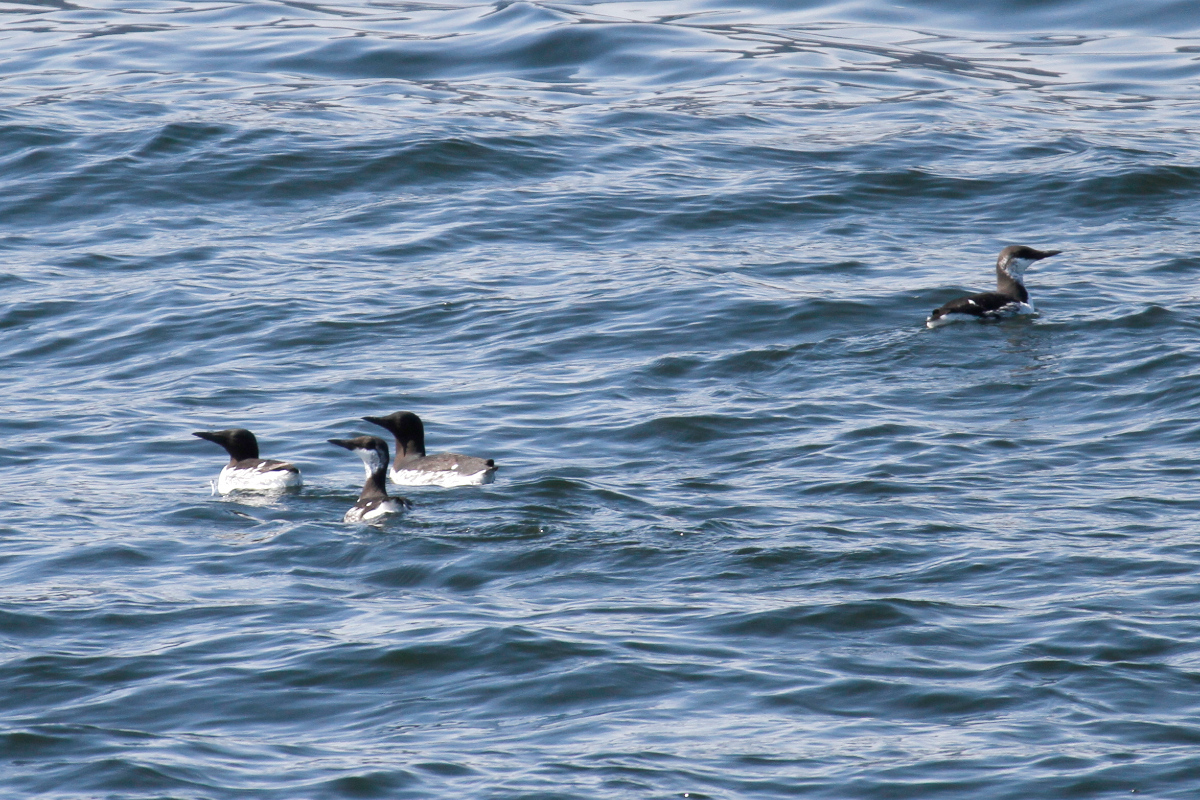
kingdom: Animalia
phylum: Chordata
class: Aves
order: Charadriiformes
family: Alcidae
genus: Uria
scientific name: Uria aalge
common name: Common murre
